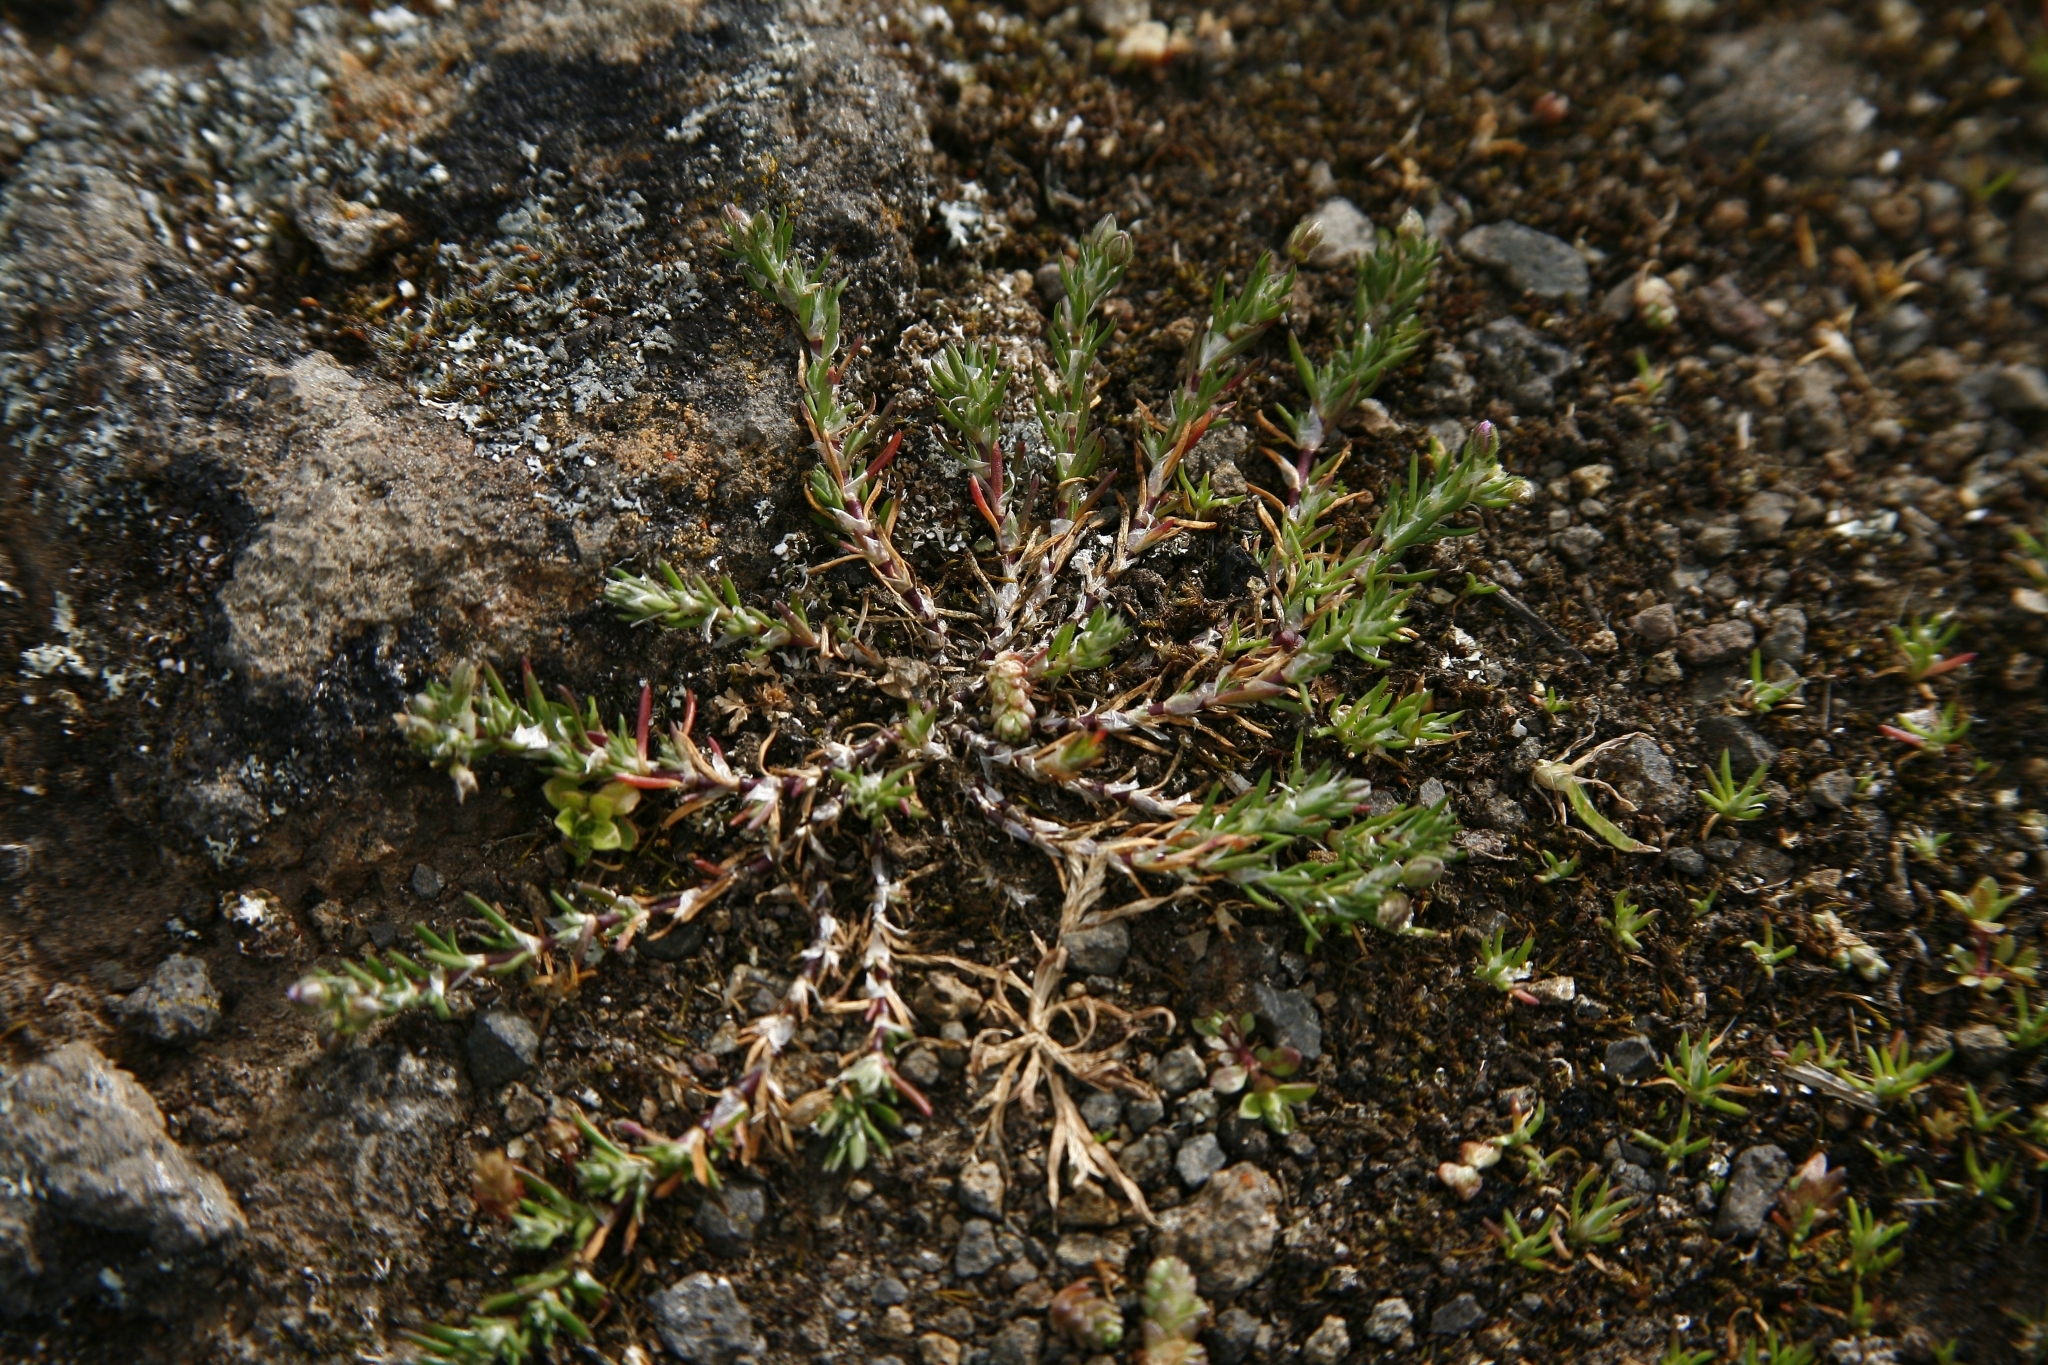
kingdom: Plantae
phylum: Tracheophyta
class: Magnoliopsida
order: Caryophyllales
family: Caryophyllaceae
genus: Spergularia
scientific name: Spergularia rubra
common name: Red sand-spurrey
